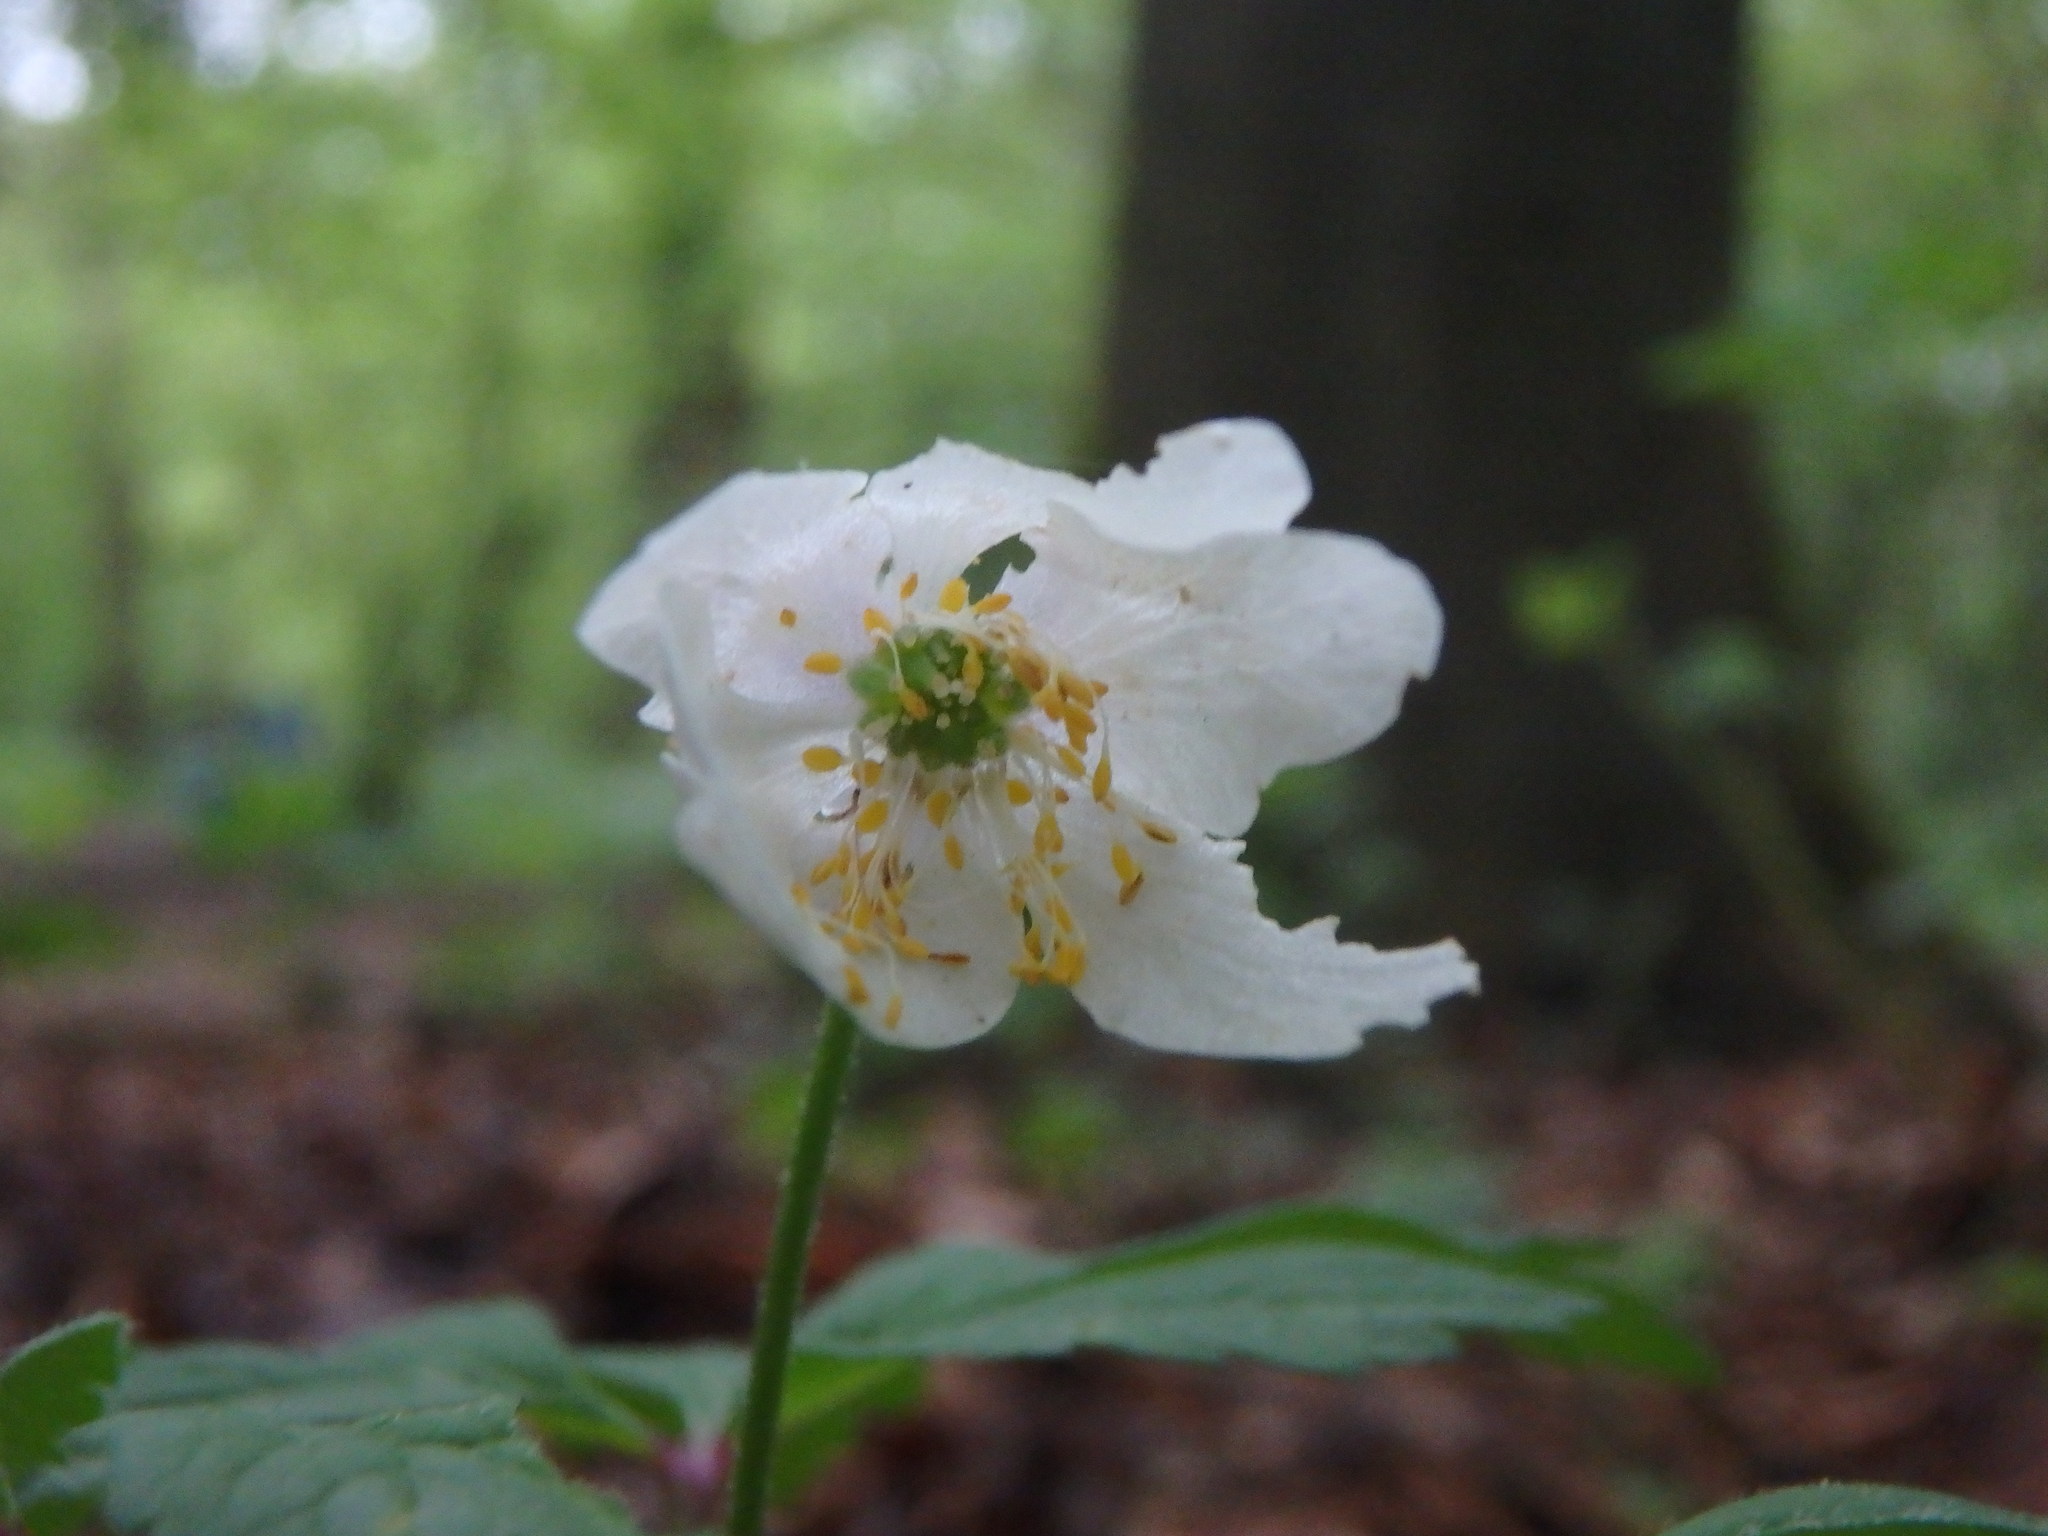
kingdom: Plantae
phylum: Tracheophyta
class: Magnoliopsida
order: Ranunculales
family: Ranunculaceae
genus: Anemone
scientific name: Anemone nemorosa
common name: Wood anemone
